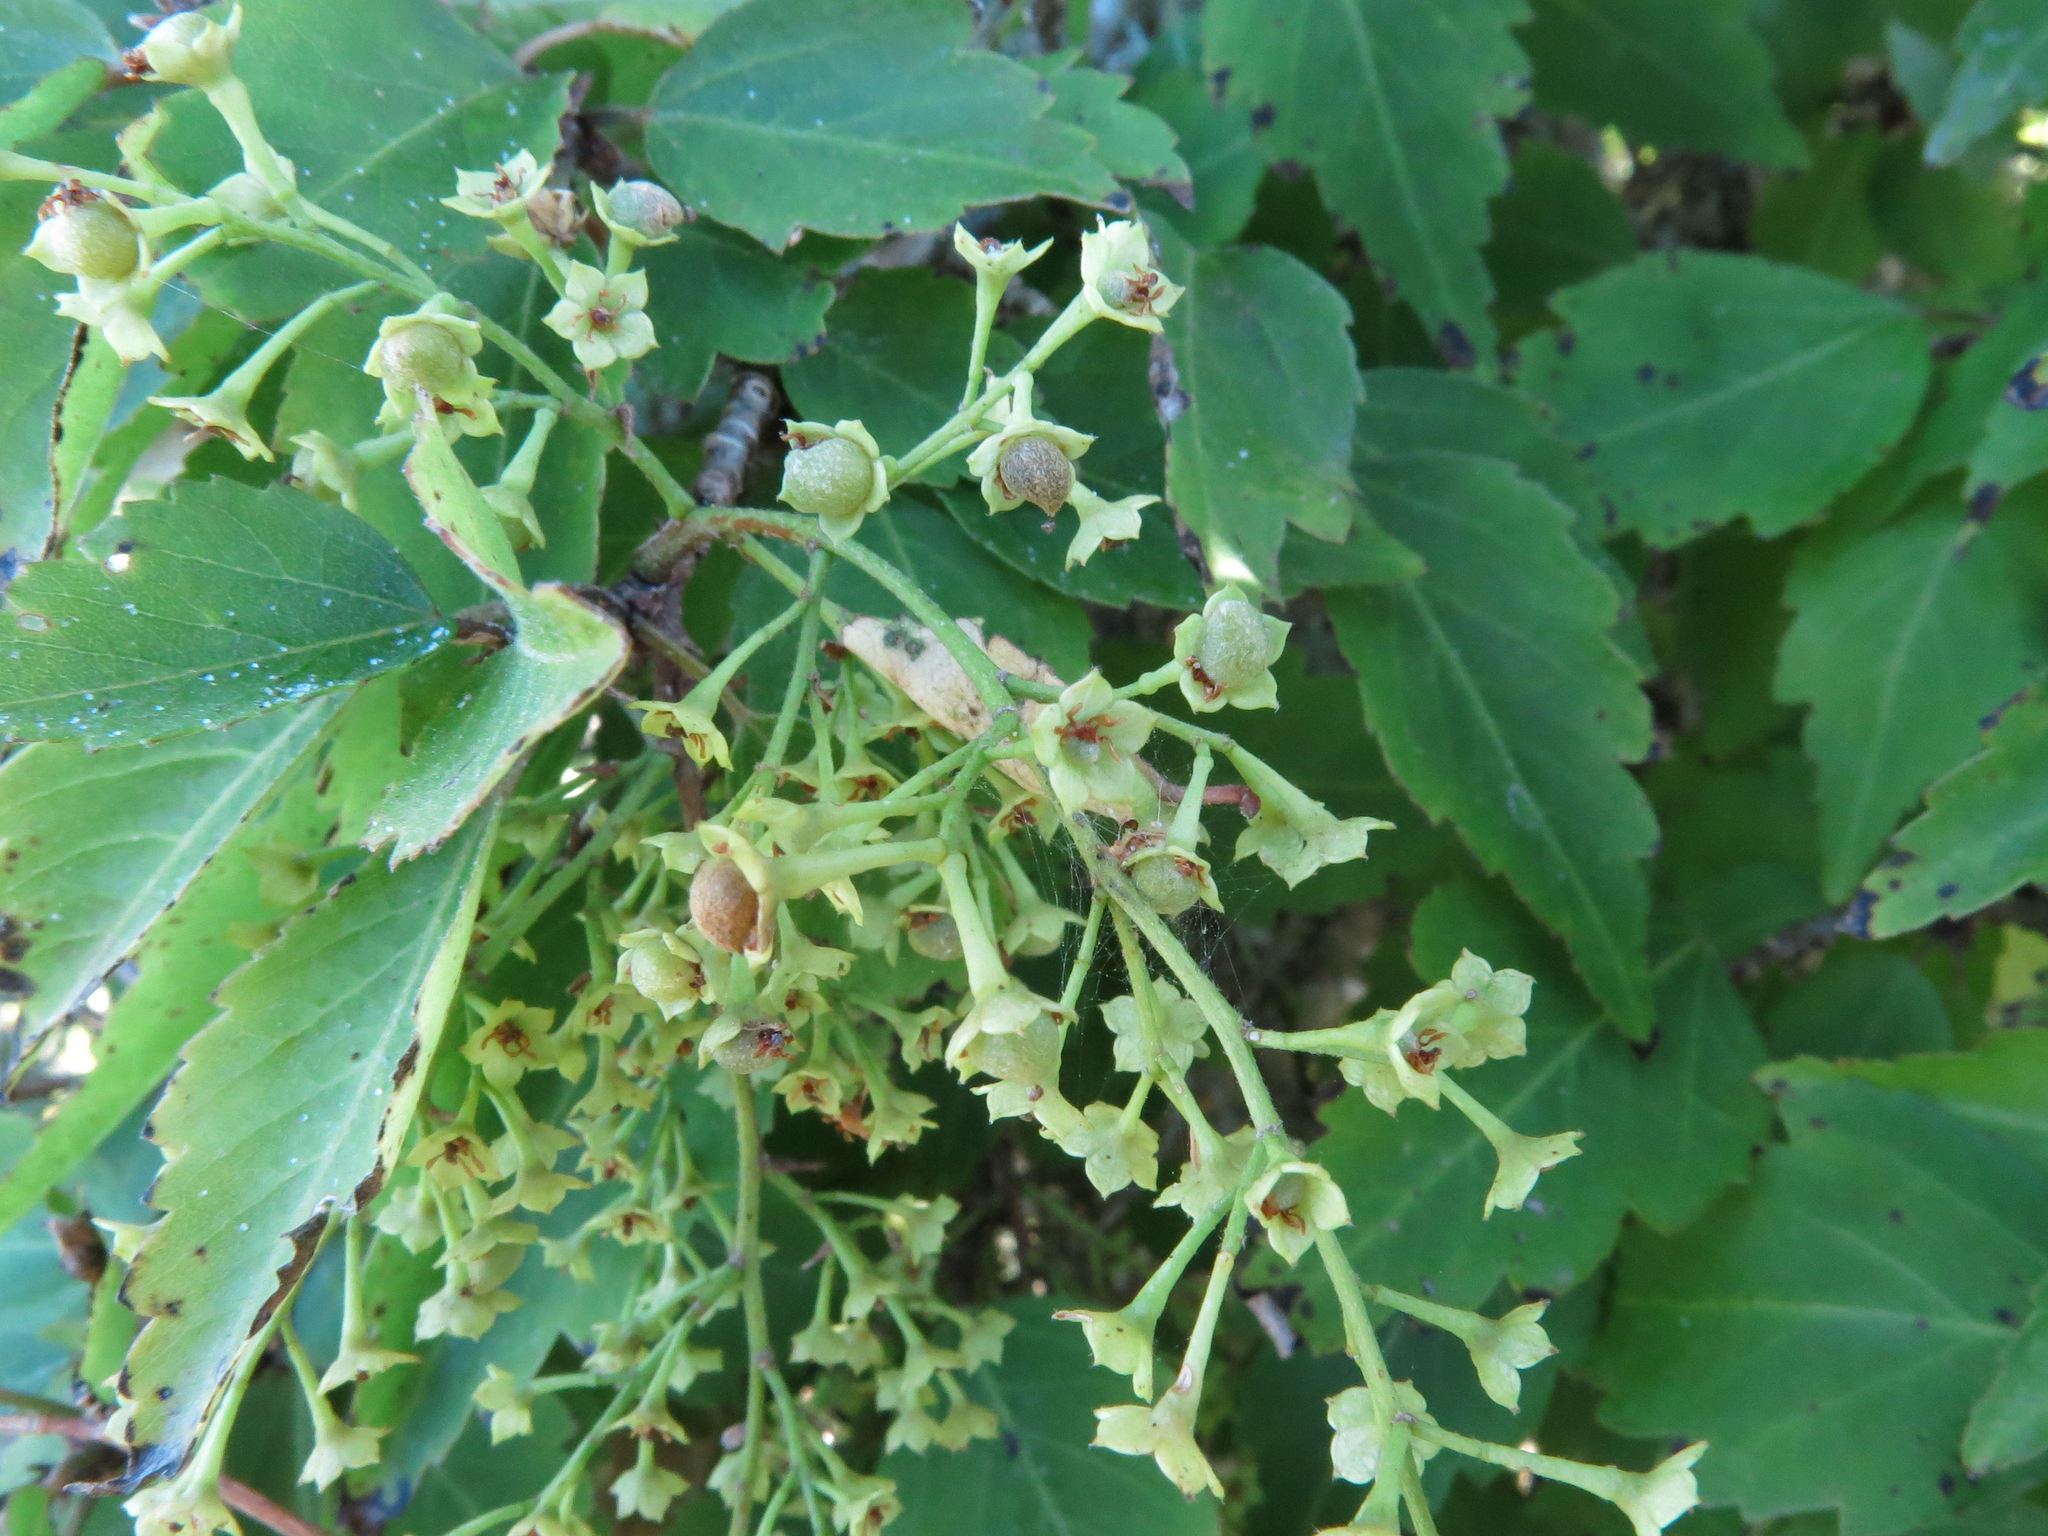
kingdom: Plantae
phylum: Tracheophyta
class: Magnoliopsida
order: Malvales
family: Malvaceae
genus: Plagianthus
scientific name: Plagianthus regius
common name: Manatu
